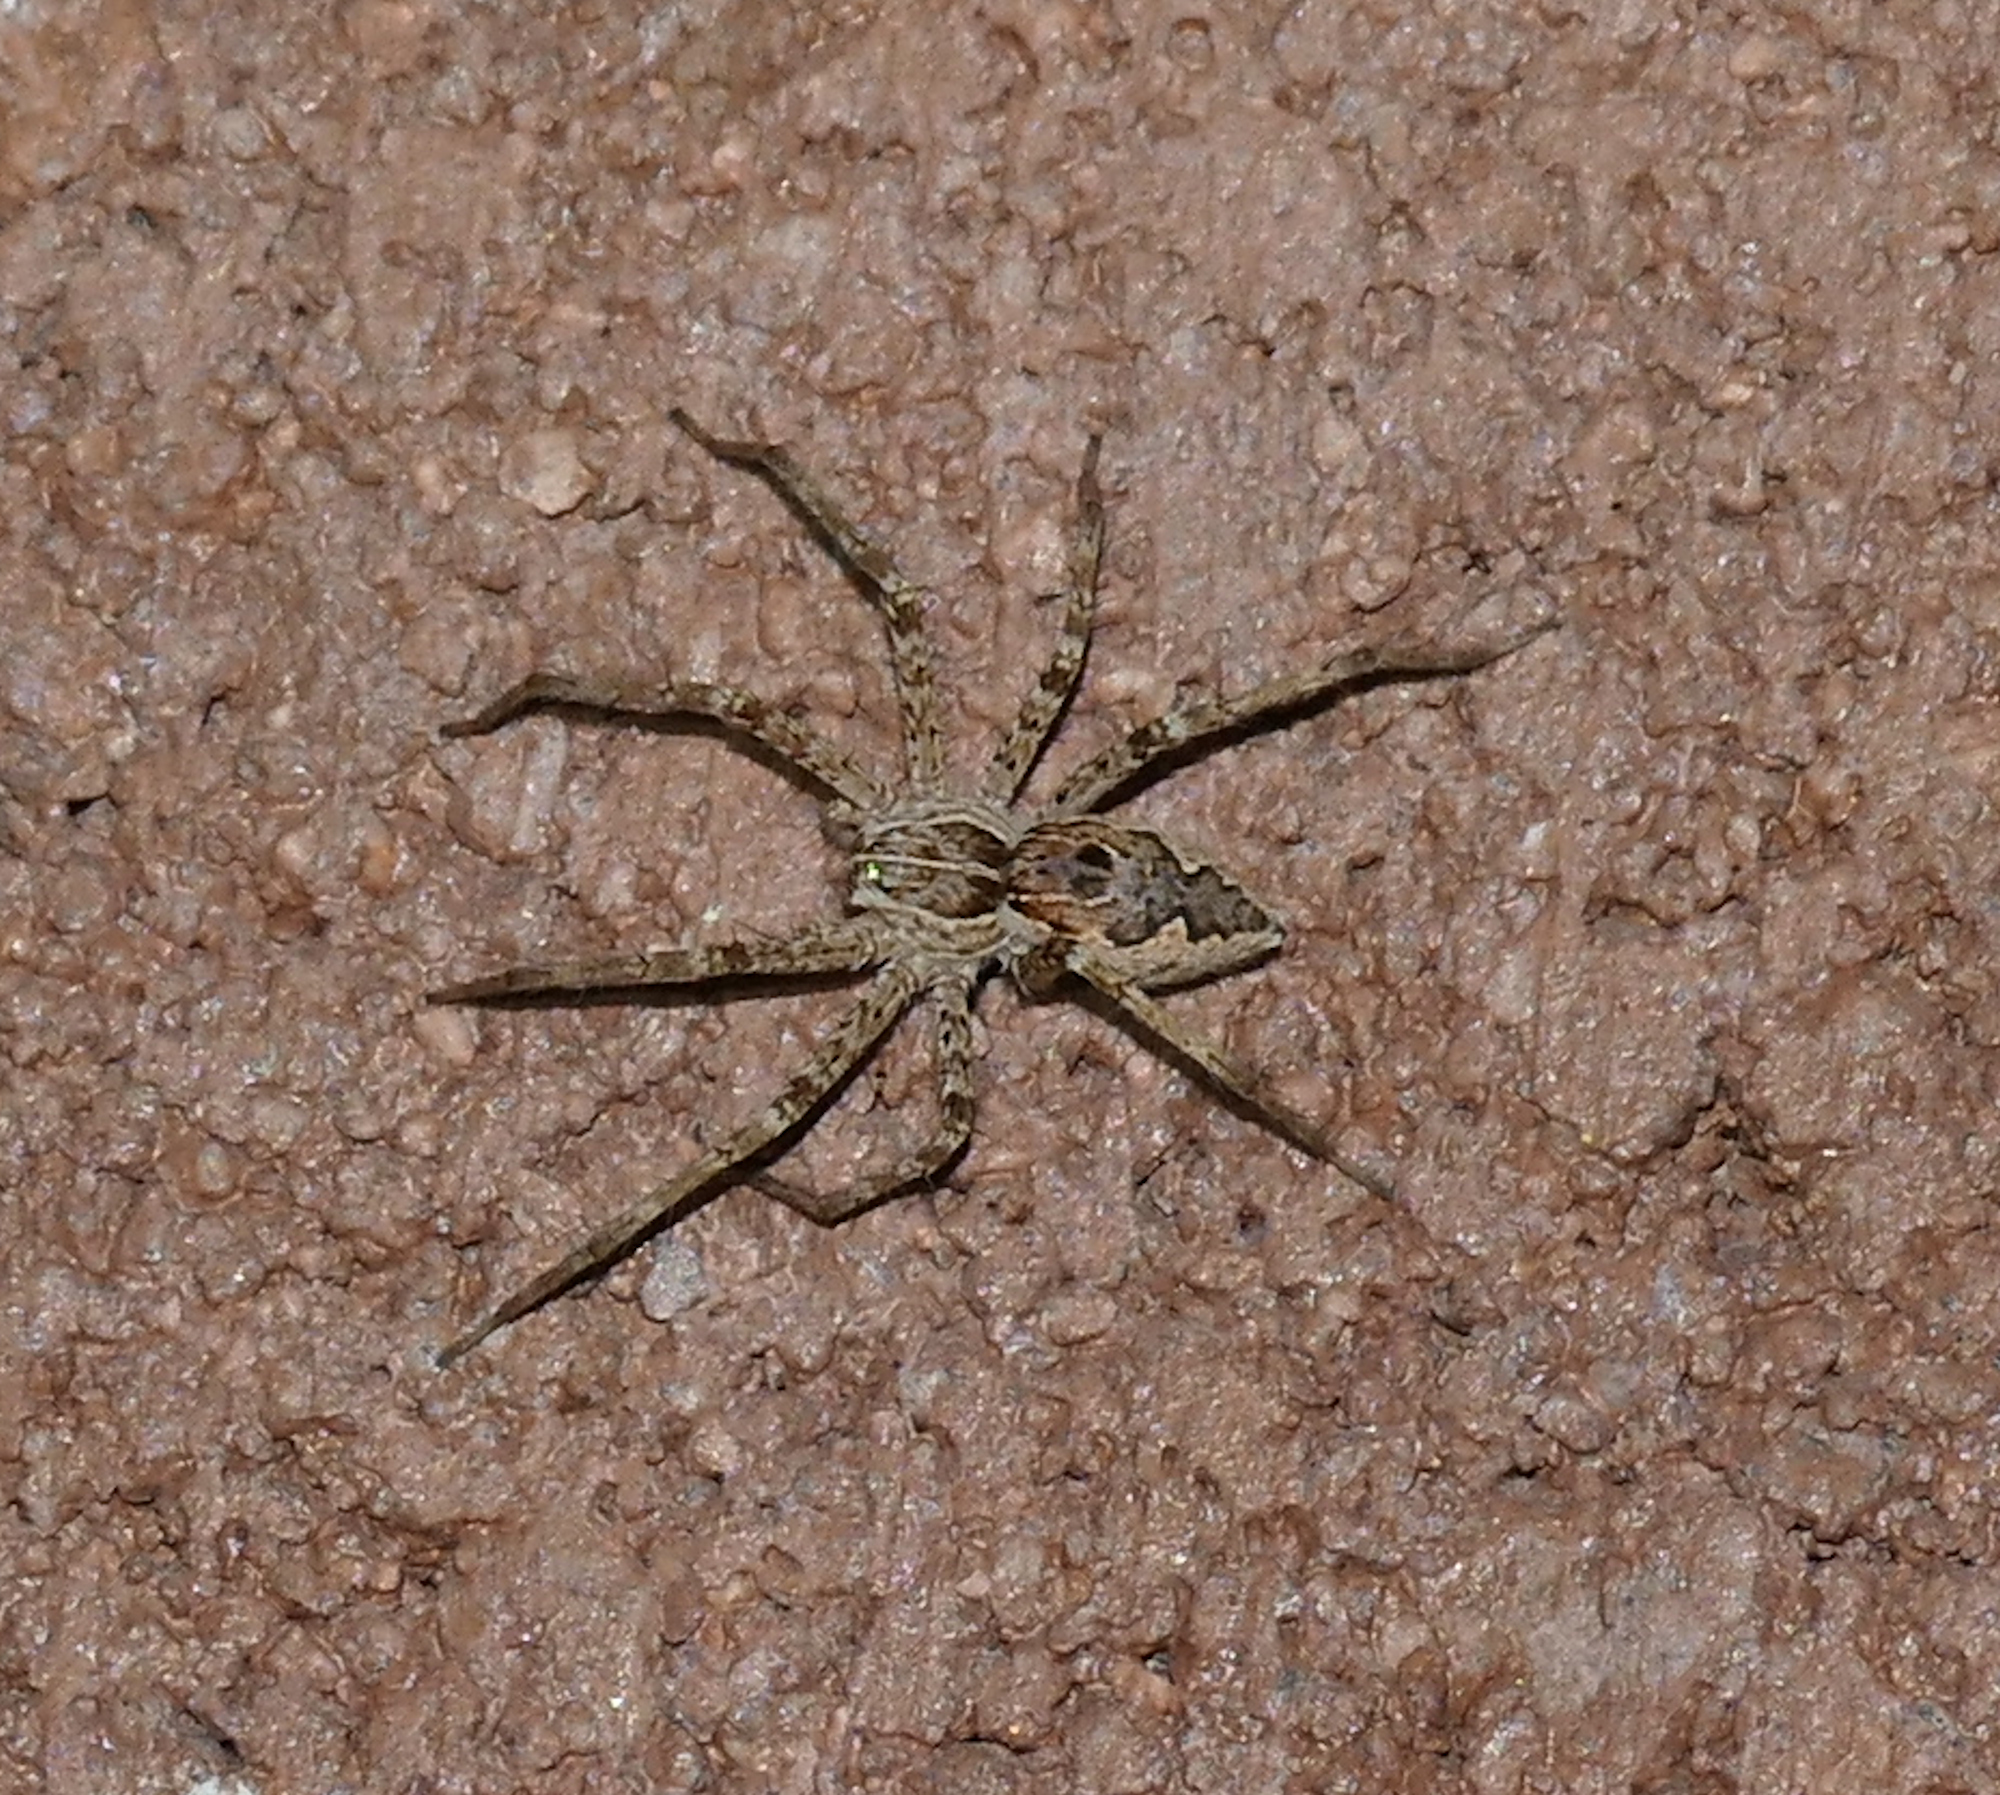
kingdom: Animalia
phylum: Arthropoda
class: Arachnida
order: Araneae
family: Pisauridae
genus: Tinus
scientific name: Tinus peregrinus
